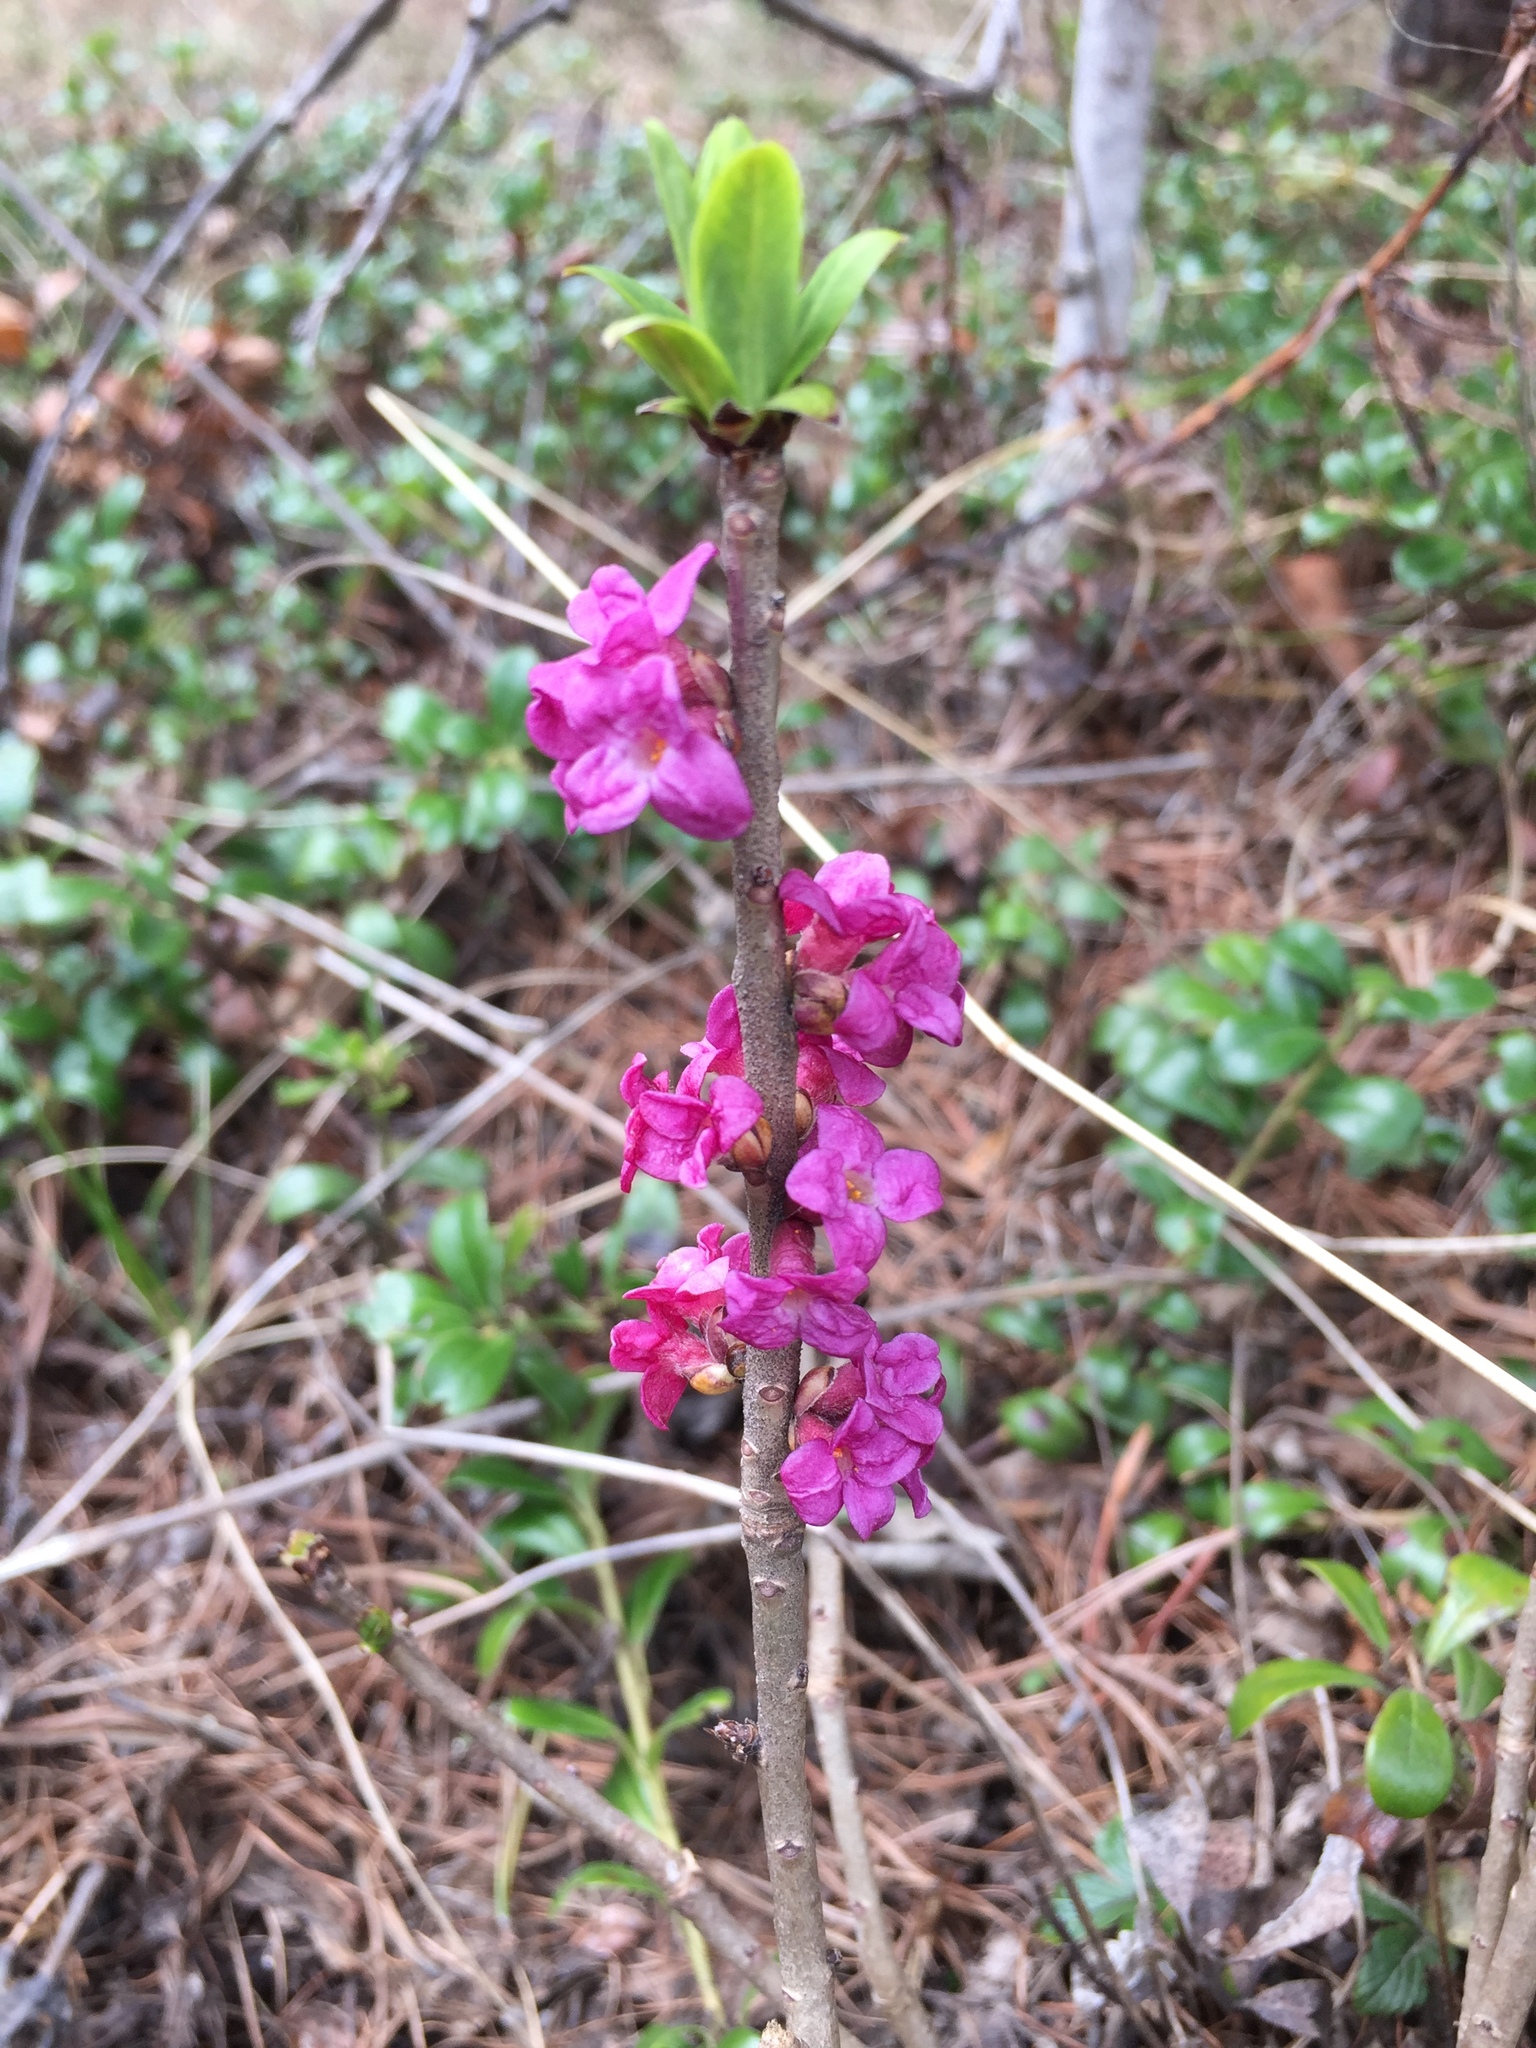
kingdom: Plantae
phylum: Tracheophyta
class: Magnoliopsida
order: Malvales
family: Thymelaeaceae
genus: Daphne
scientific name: Daphne mezereum
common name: Mezereon
